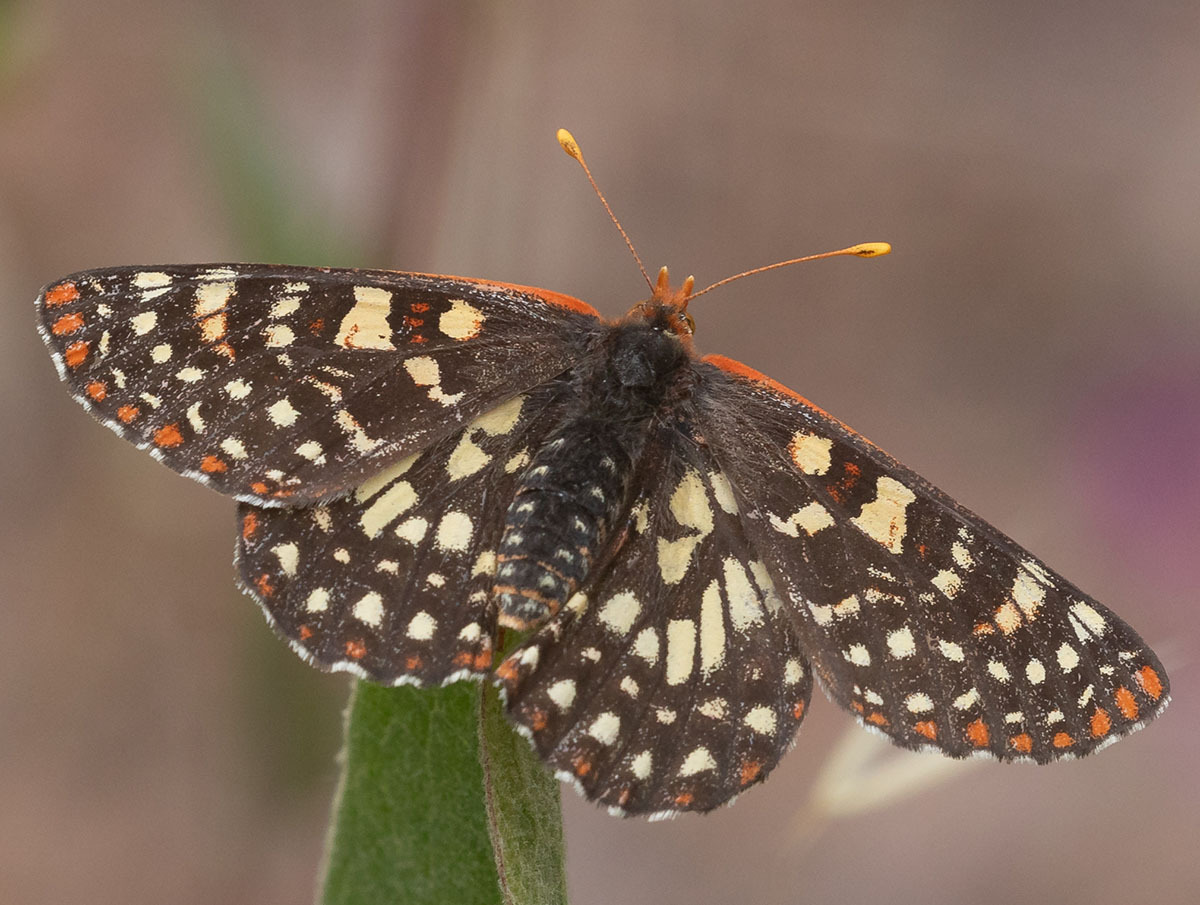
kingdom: Animalia
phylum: Arthropoda
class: Insecta
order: Lepidoptera
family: Nymphalidae
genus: Occidryas
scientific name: Occidryas chalcedona
